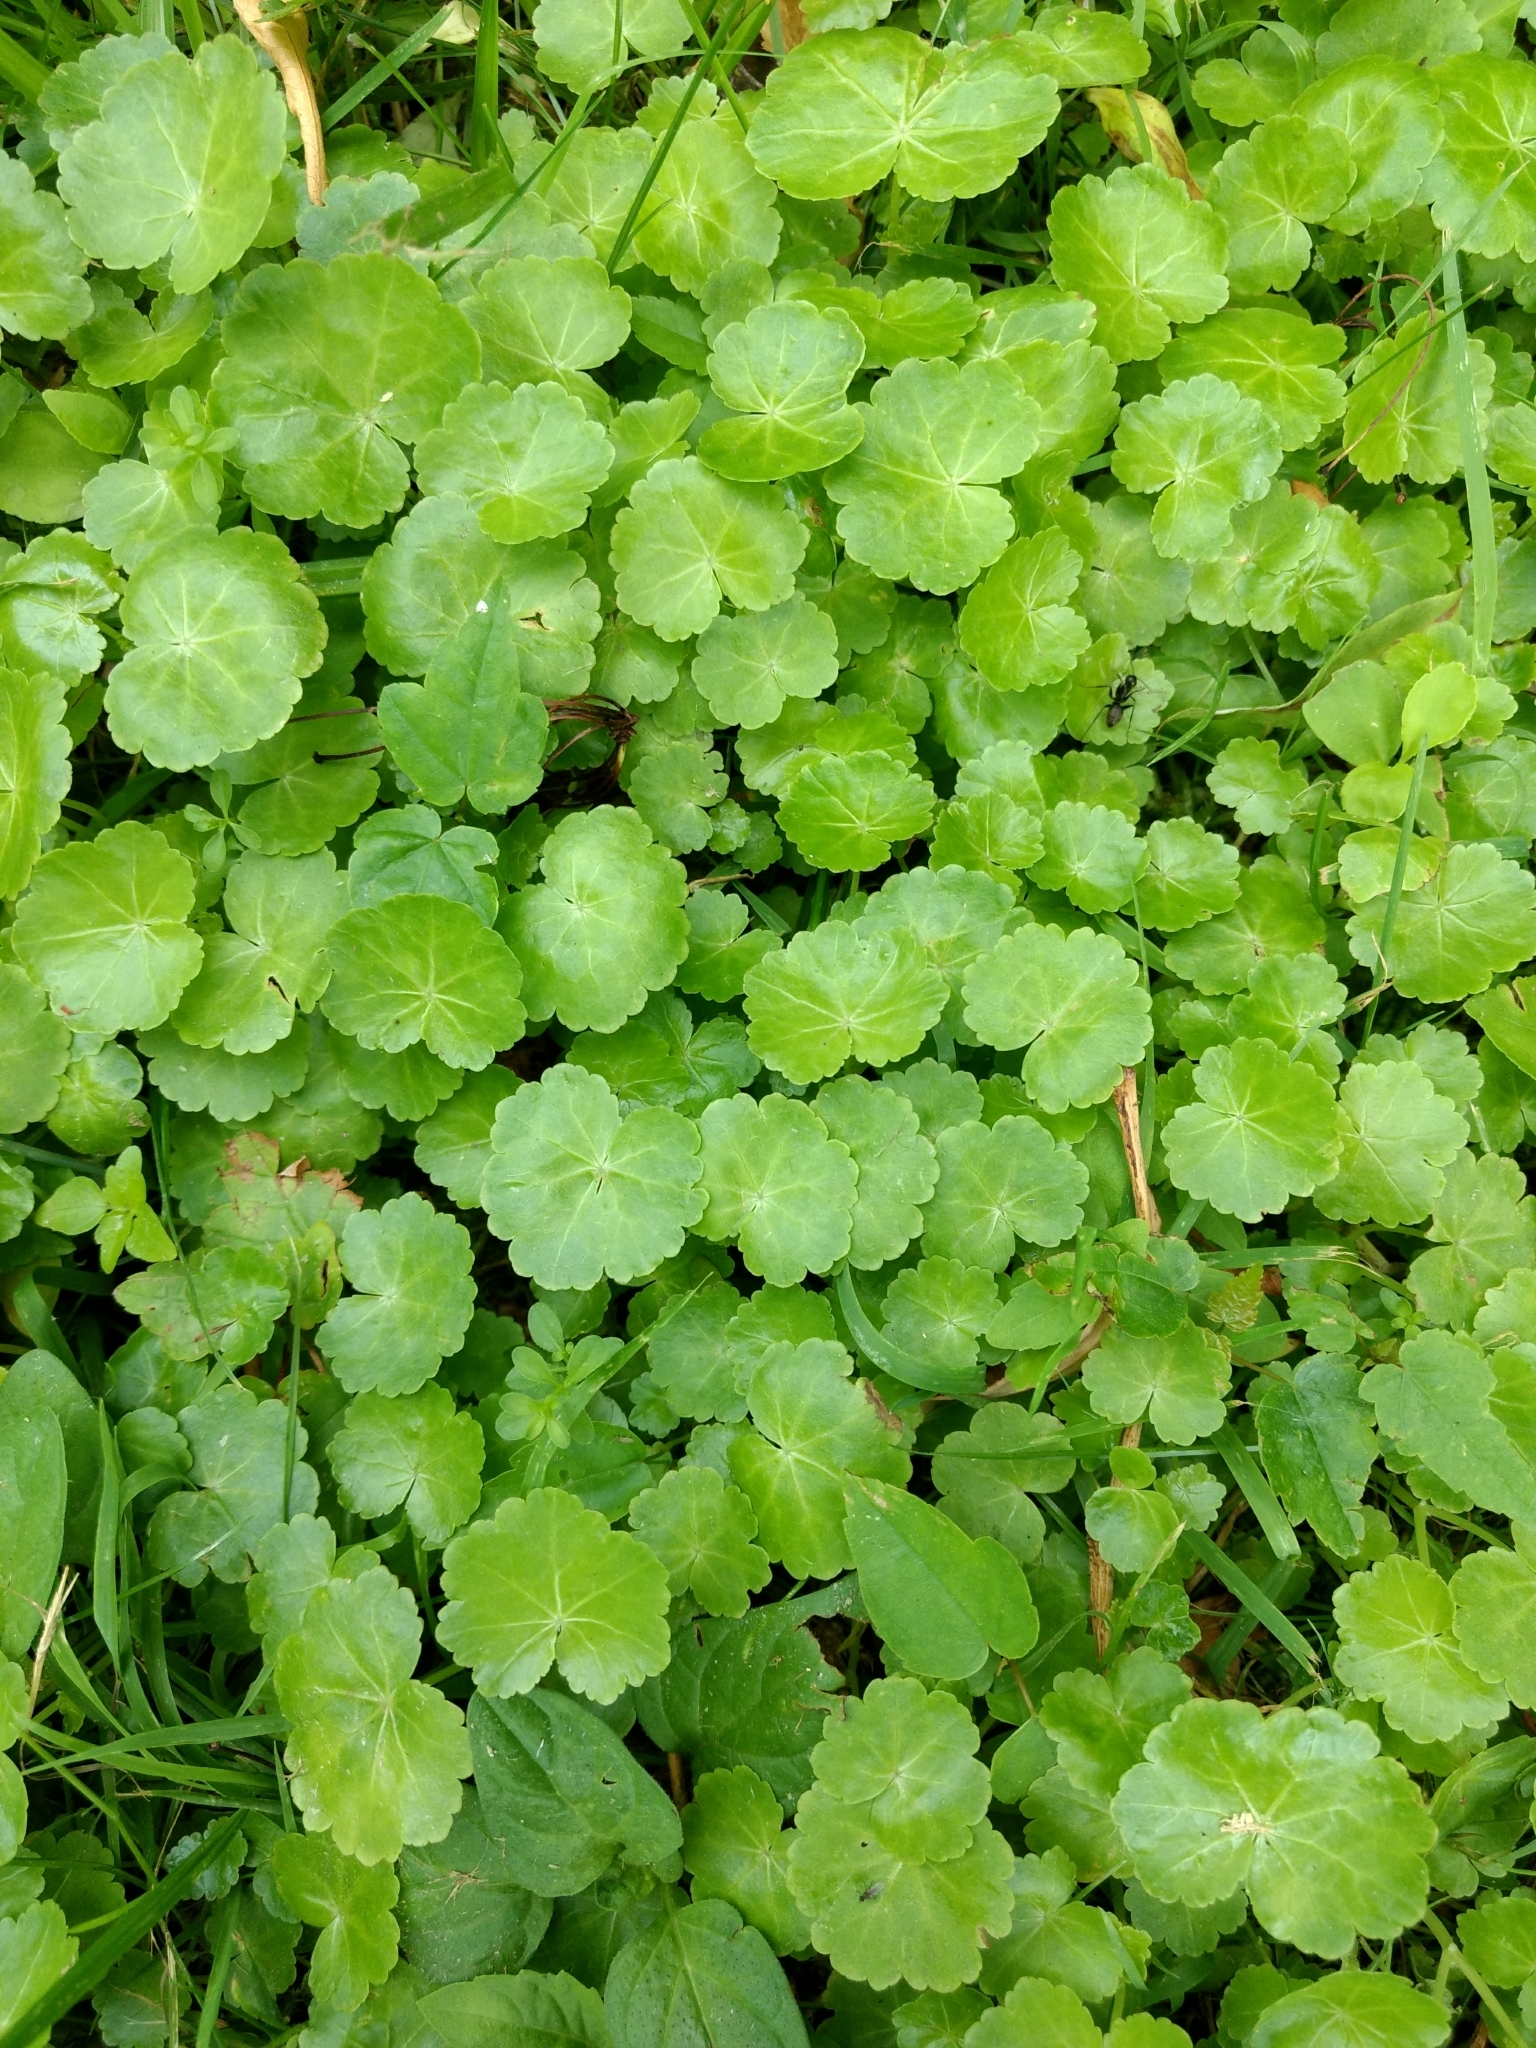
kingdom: Plantae
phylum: Tracheophyta
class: Magnoliopsida
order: Apiales
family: Araliaceae
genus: Hydrocotyle
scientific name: Hydrocotyle americana
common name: American water-pennywort
